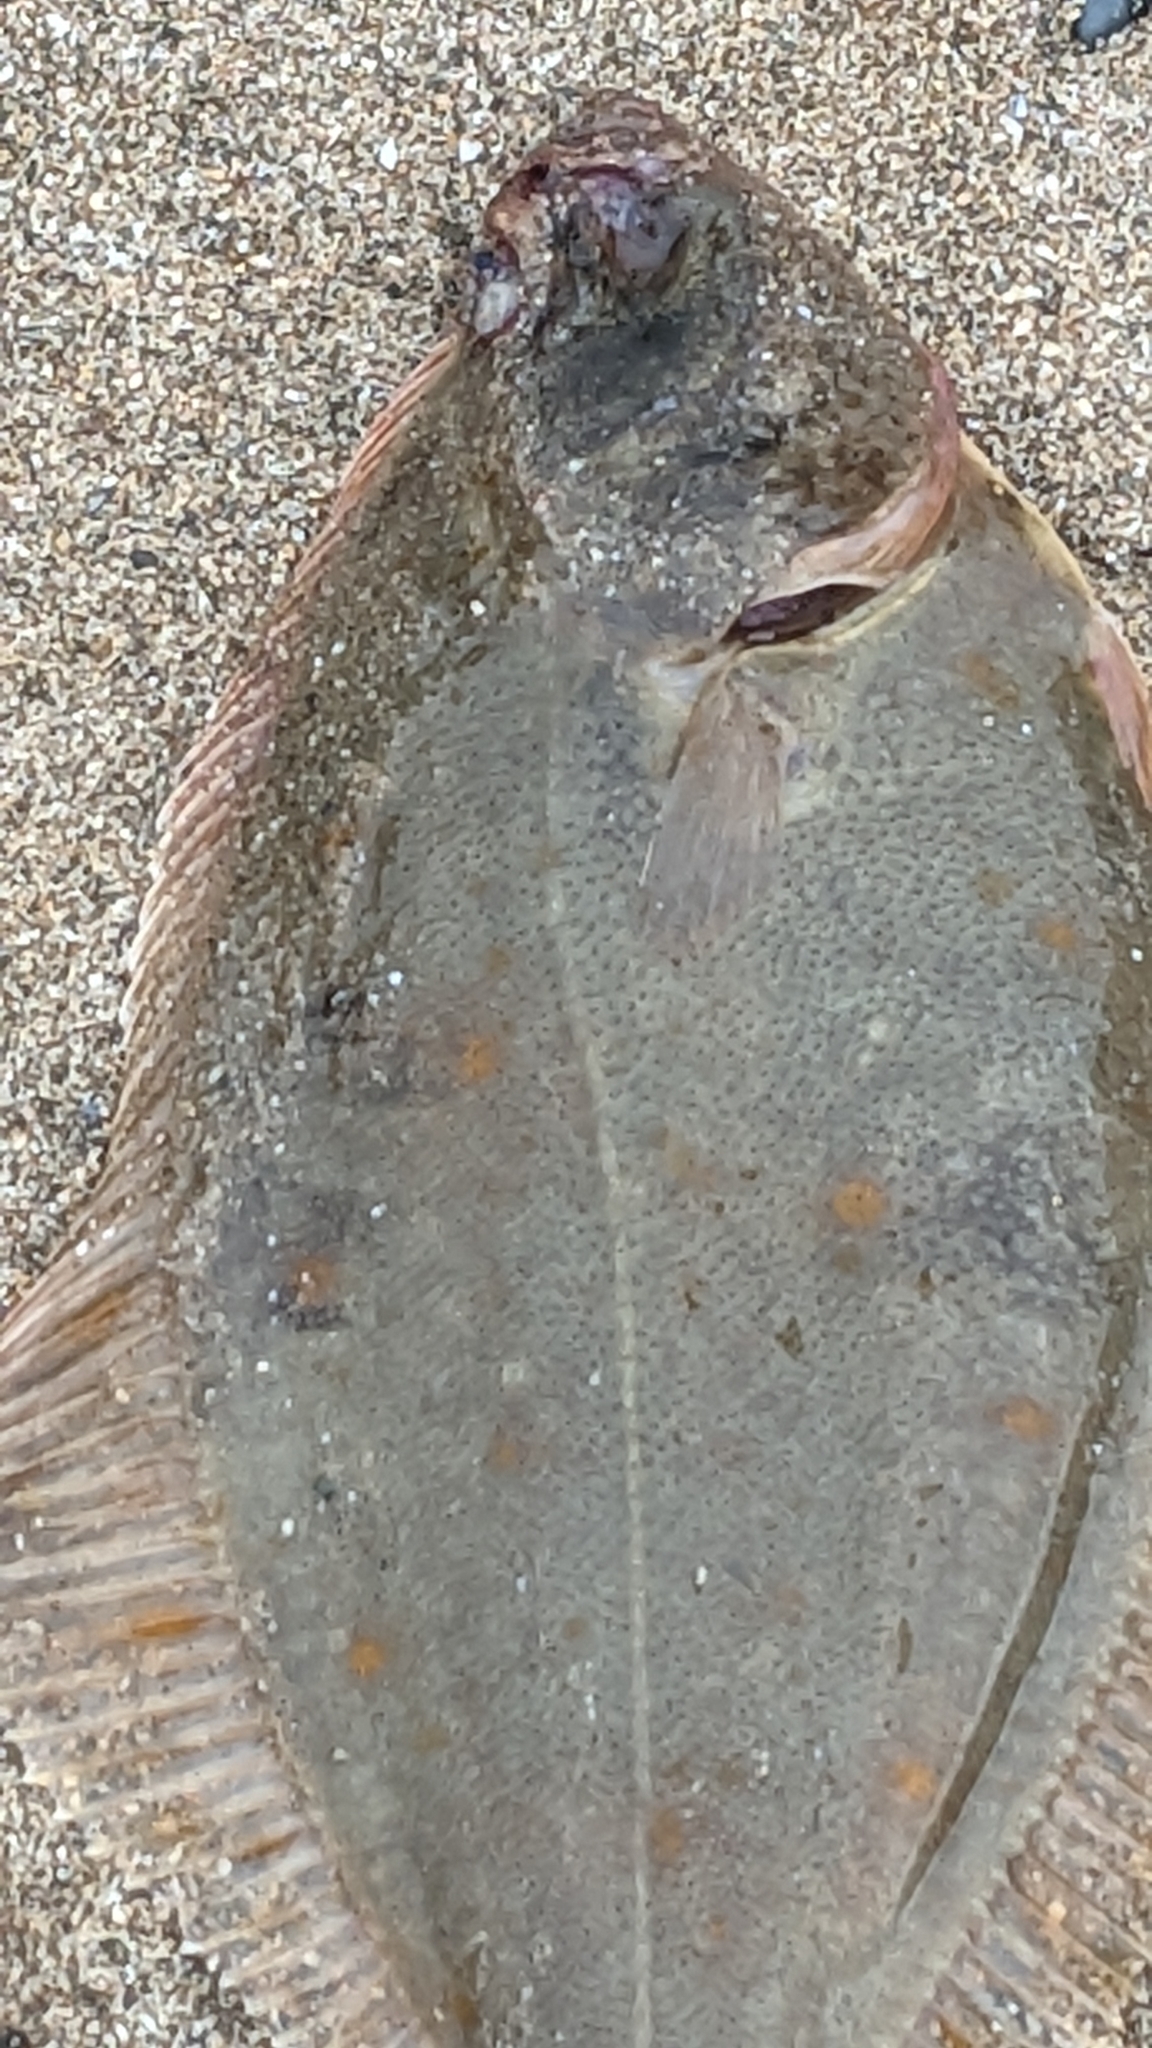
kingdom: Animalia
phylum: Chordata
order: Pleuronectiformes
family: Pleuronectidae
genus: Pleuronectes
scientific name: Pleuronectes platessa
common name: Plaice
